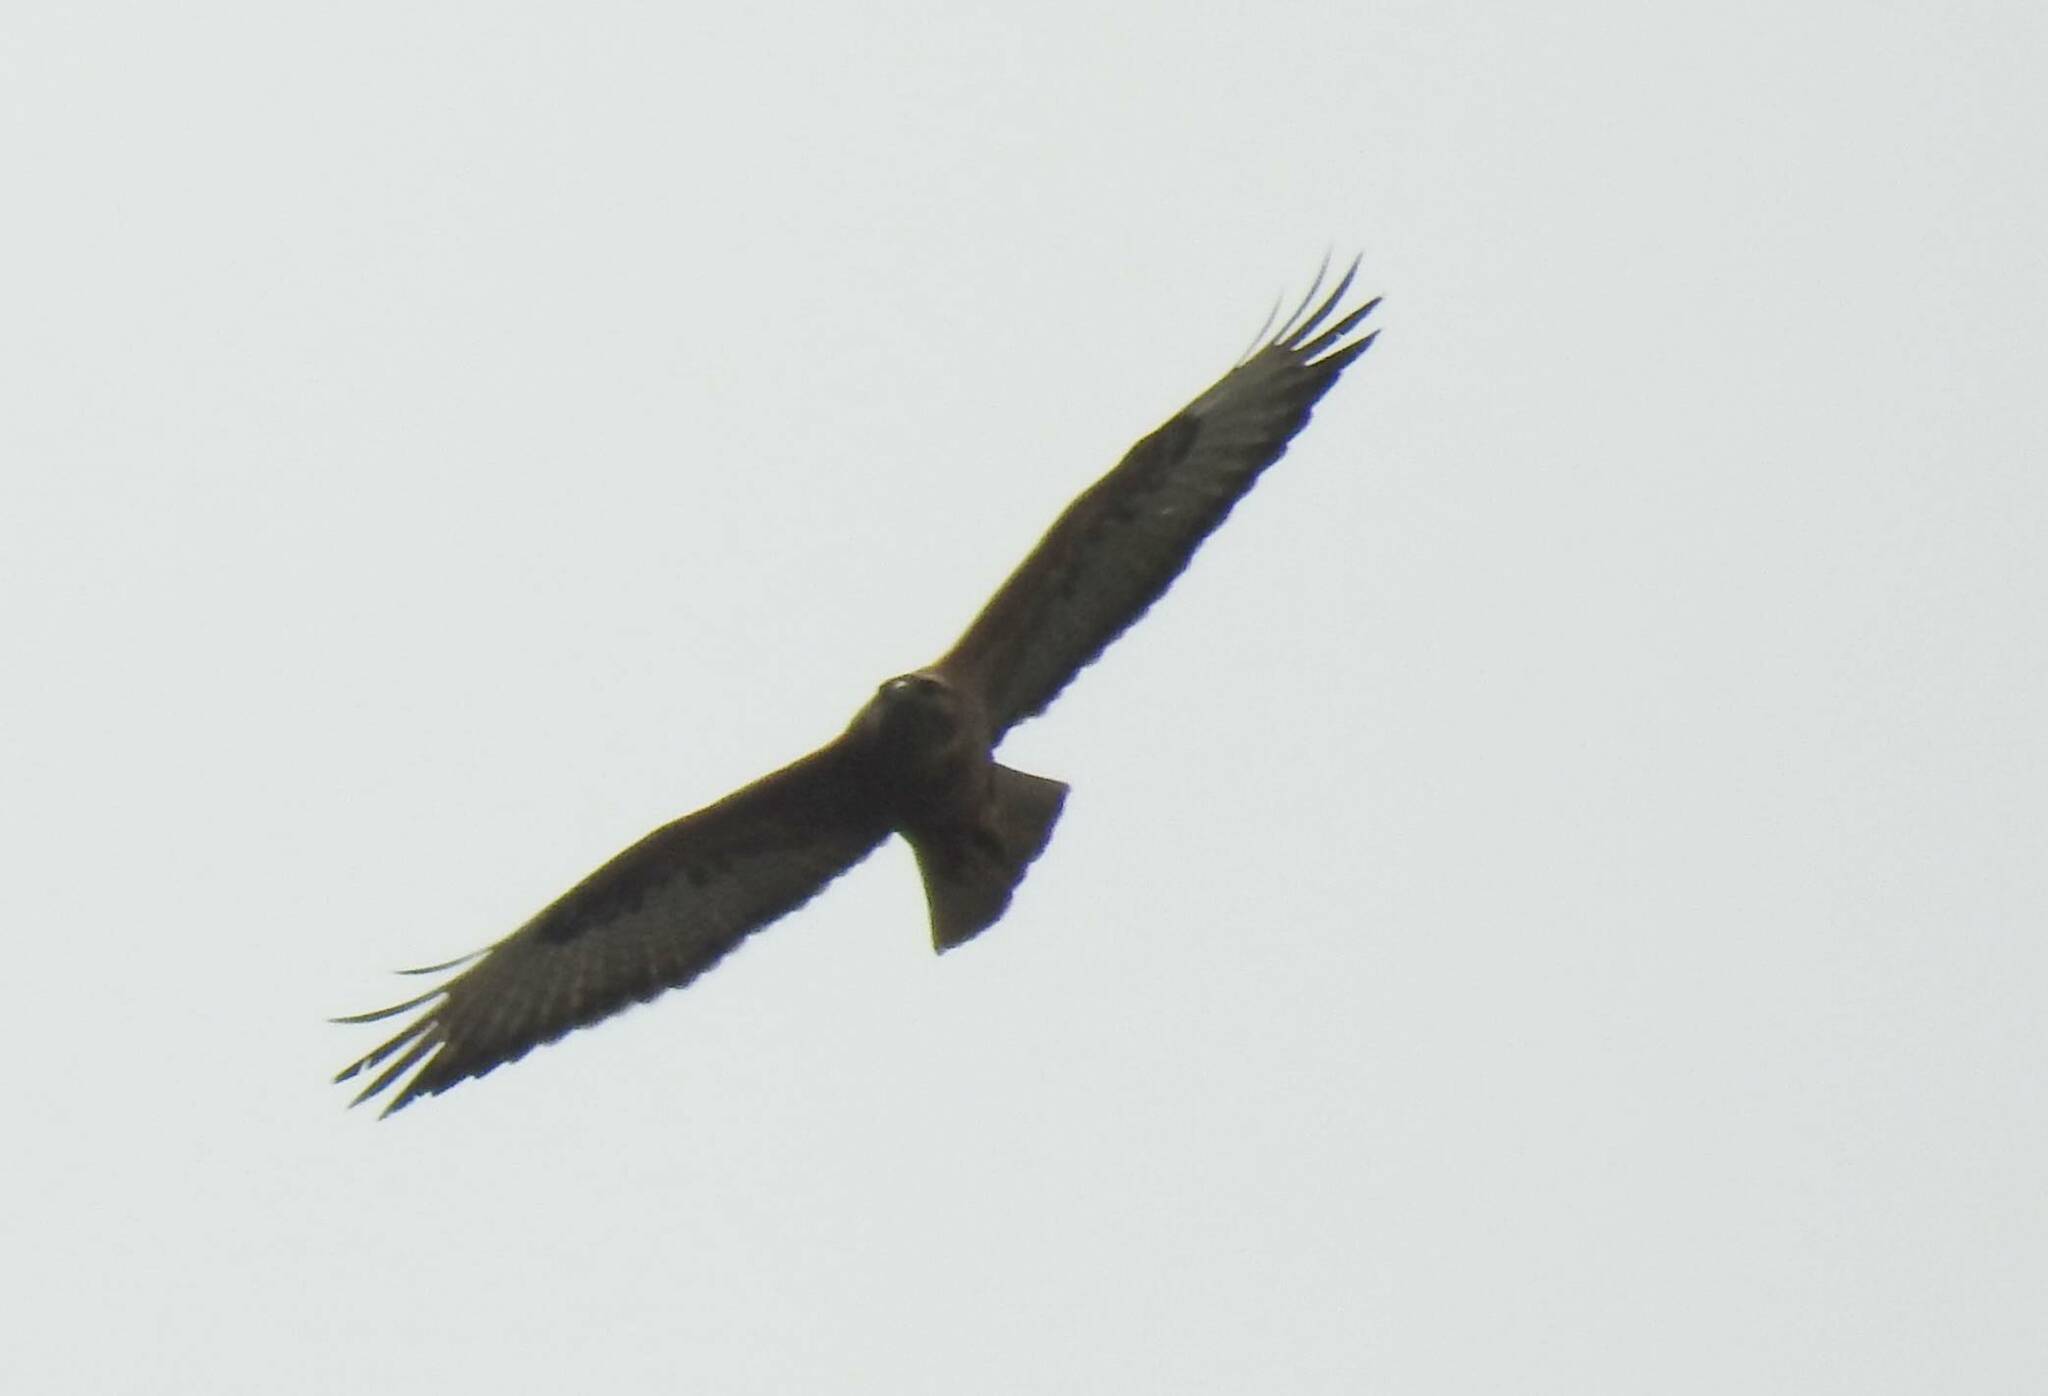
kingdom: Animalia
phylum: Chordata
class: Aves
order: Accipitriformes
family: Accipitridae
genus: Buteo
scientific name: Buteo rufinus
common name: Long-legged buzzard
